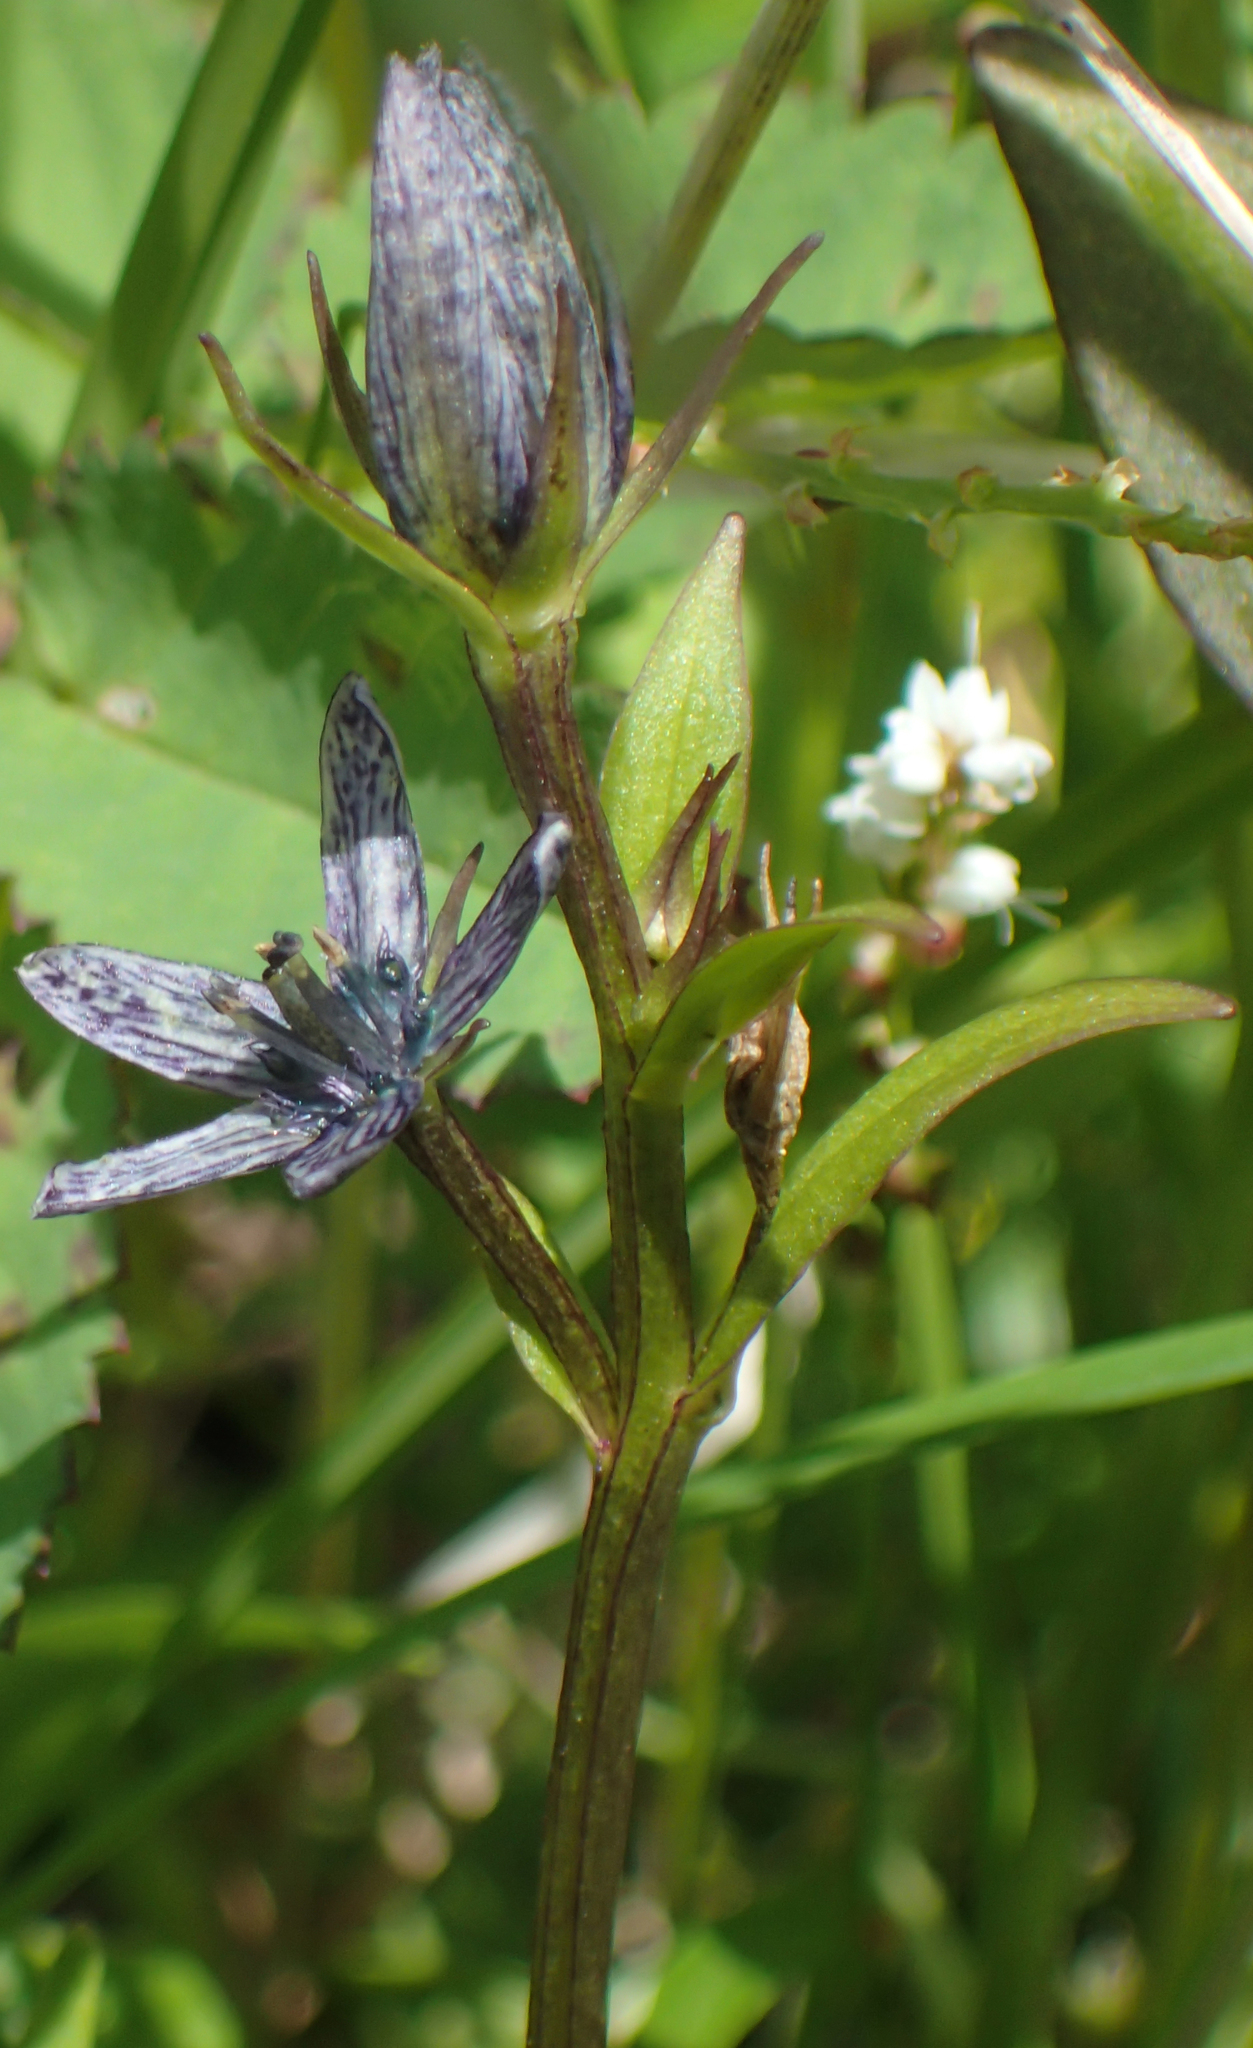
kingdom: Plantae
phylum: Tracheophyta
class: Magnoliopsida
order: Gentianales
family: Gentianaceae
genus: Swertia
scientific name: Swertia perennis
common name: Alpine bog swertia
